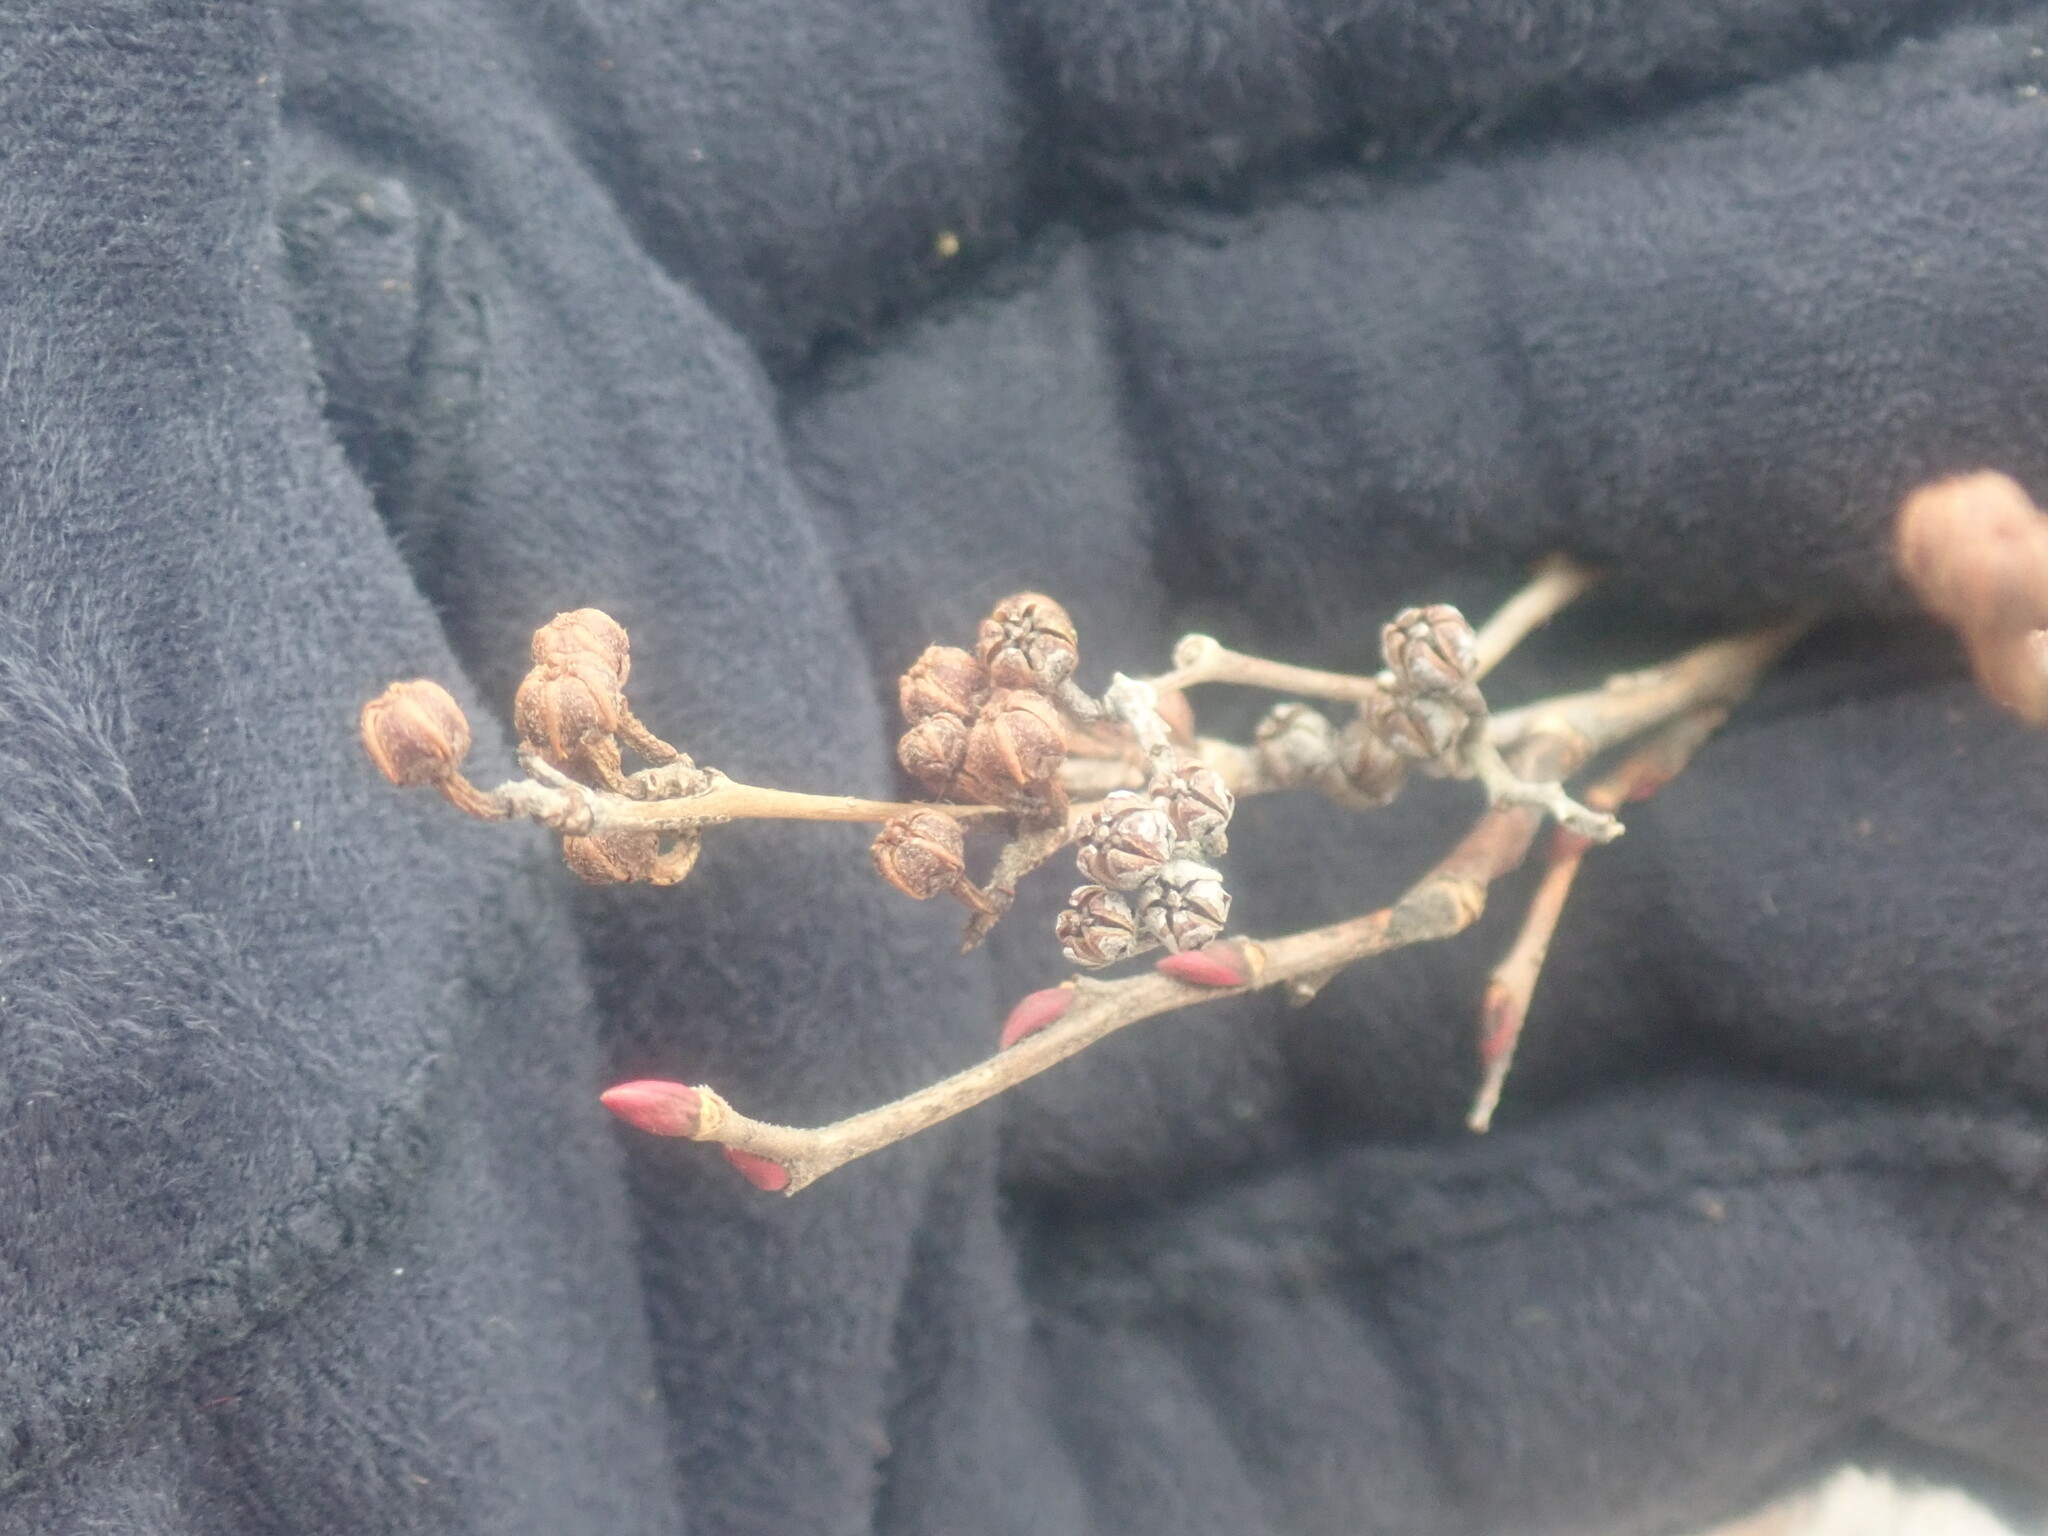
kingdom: Plantae
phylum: Tracheophyta
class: Magnoliopsida
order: Ericales
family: Ericaceae
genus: Lyonia
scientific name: Lyonia ligustrina
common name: Maleberry
